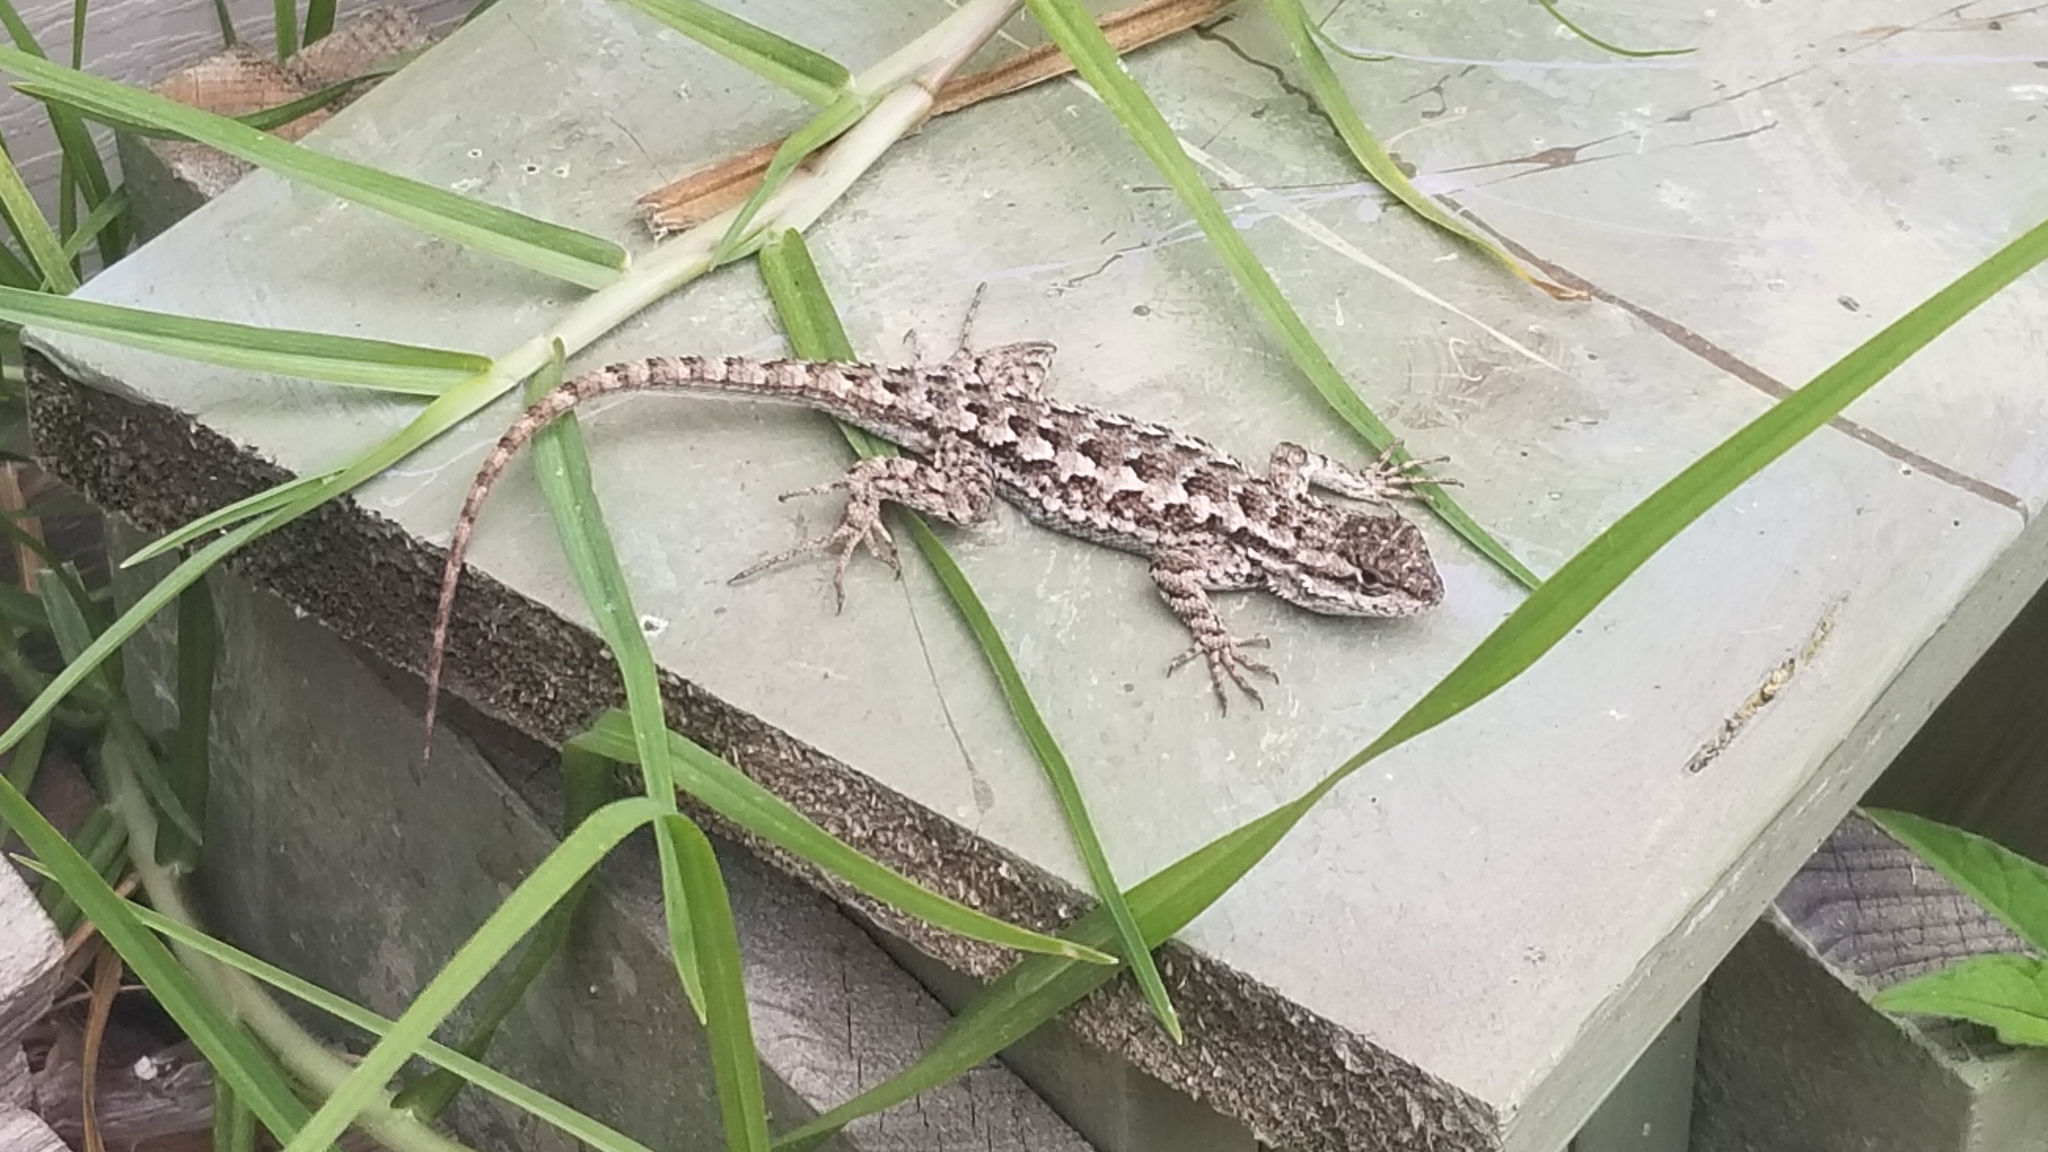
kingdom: Animalia
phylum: Chordata
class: Squamata
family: Phrynosomatidae
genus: Sceloporus
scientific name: Sceloporus occidentalis
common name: Western fence lizard
